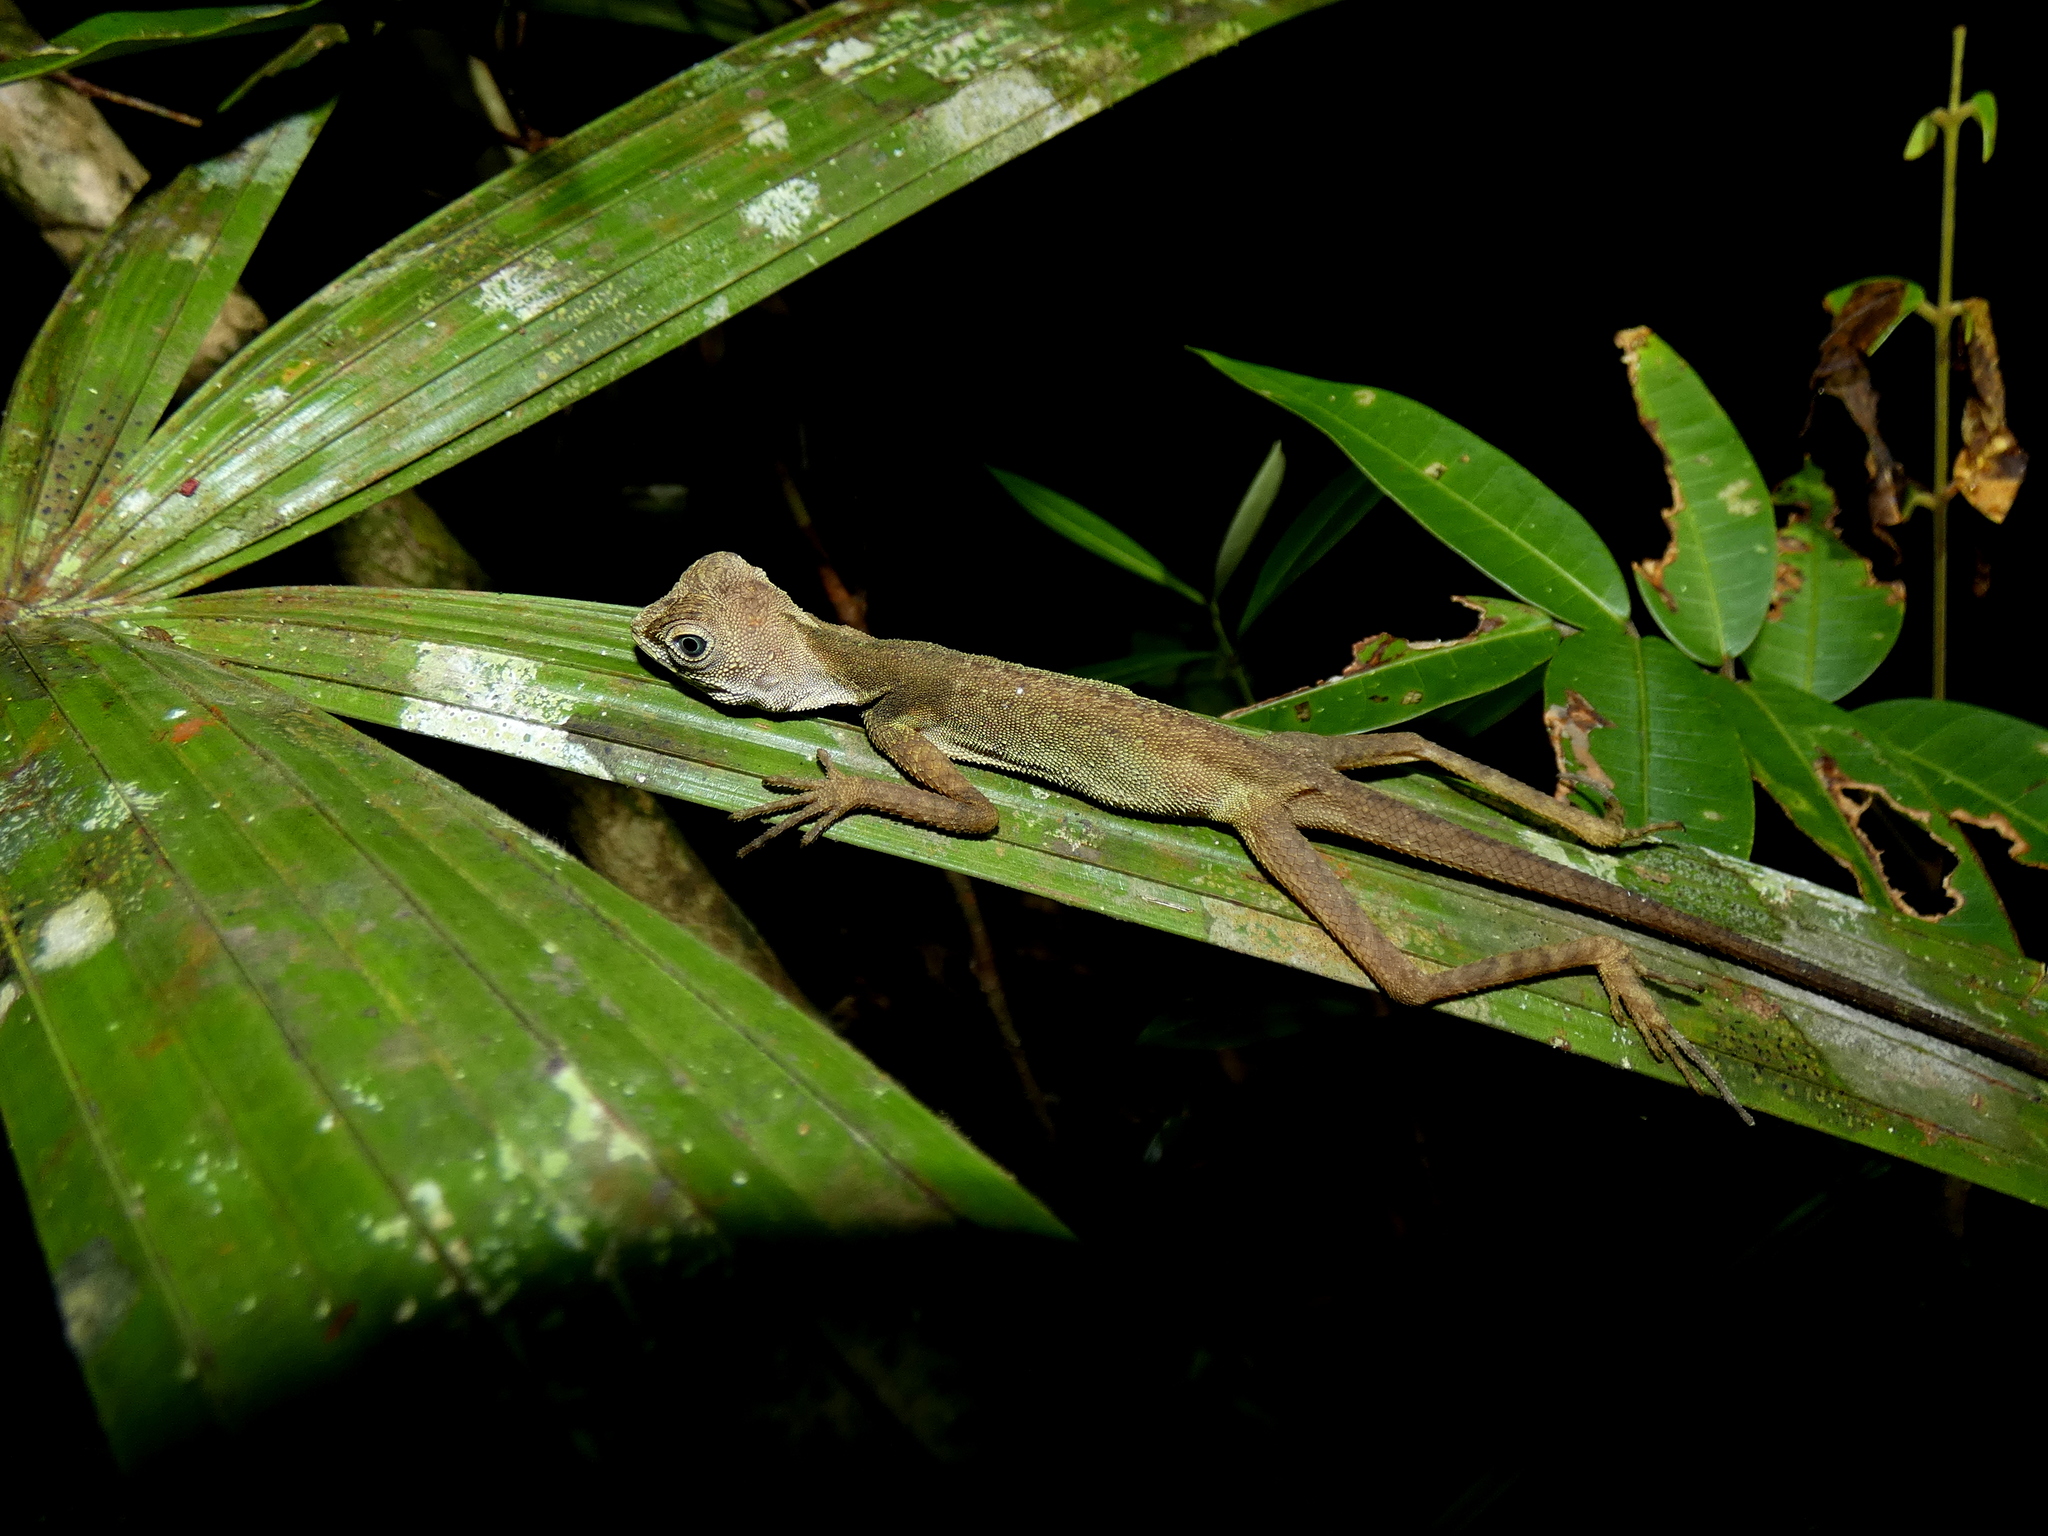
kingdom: Animalia
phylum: Chordata
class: Squamata
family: Agamidae
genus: Aphaniotis
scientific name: Aphaniotis fusca
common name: Dusky earless agama
